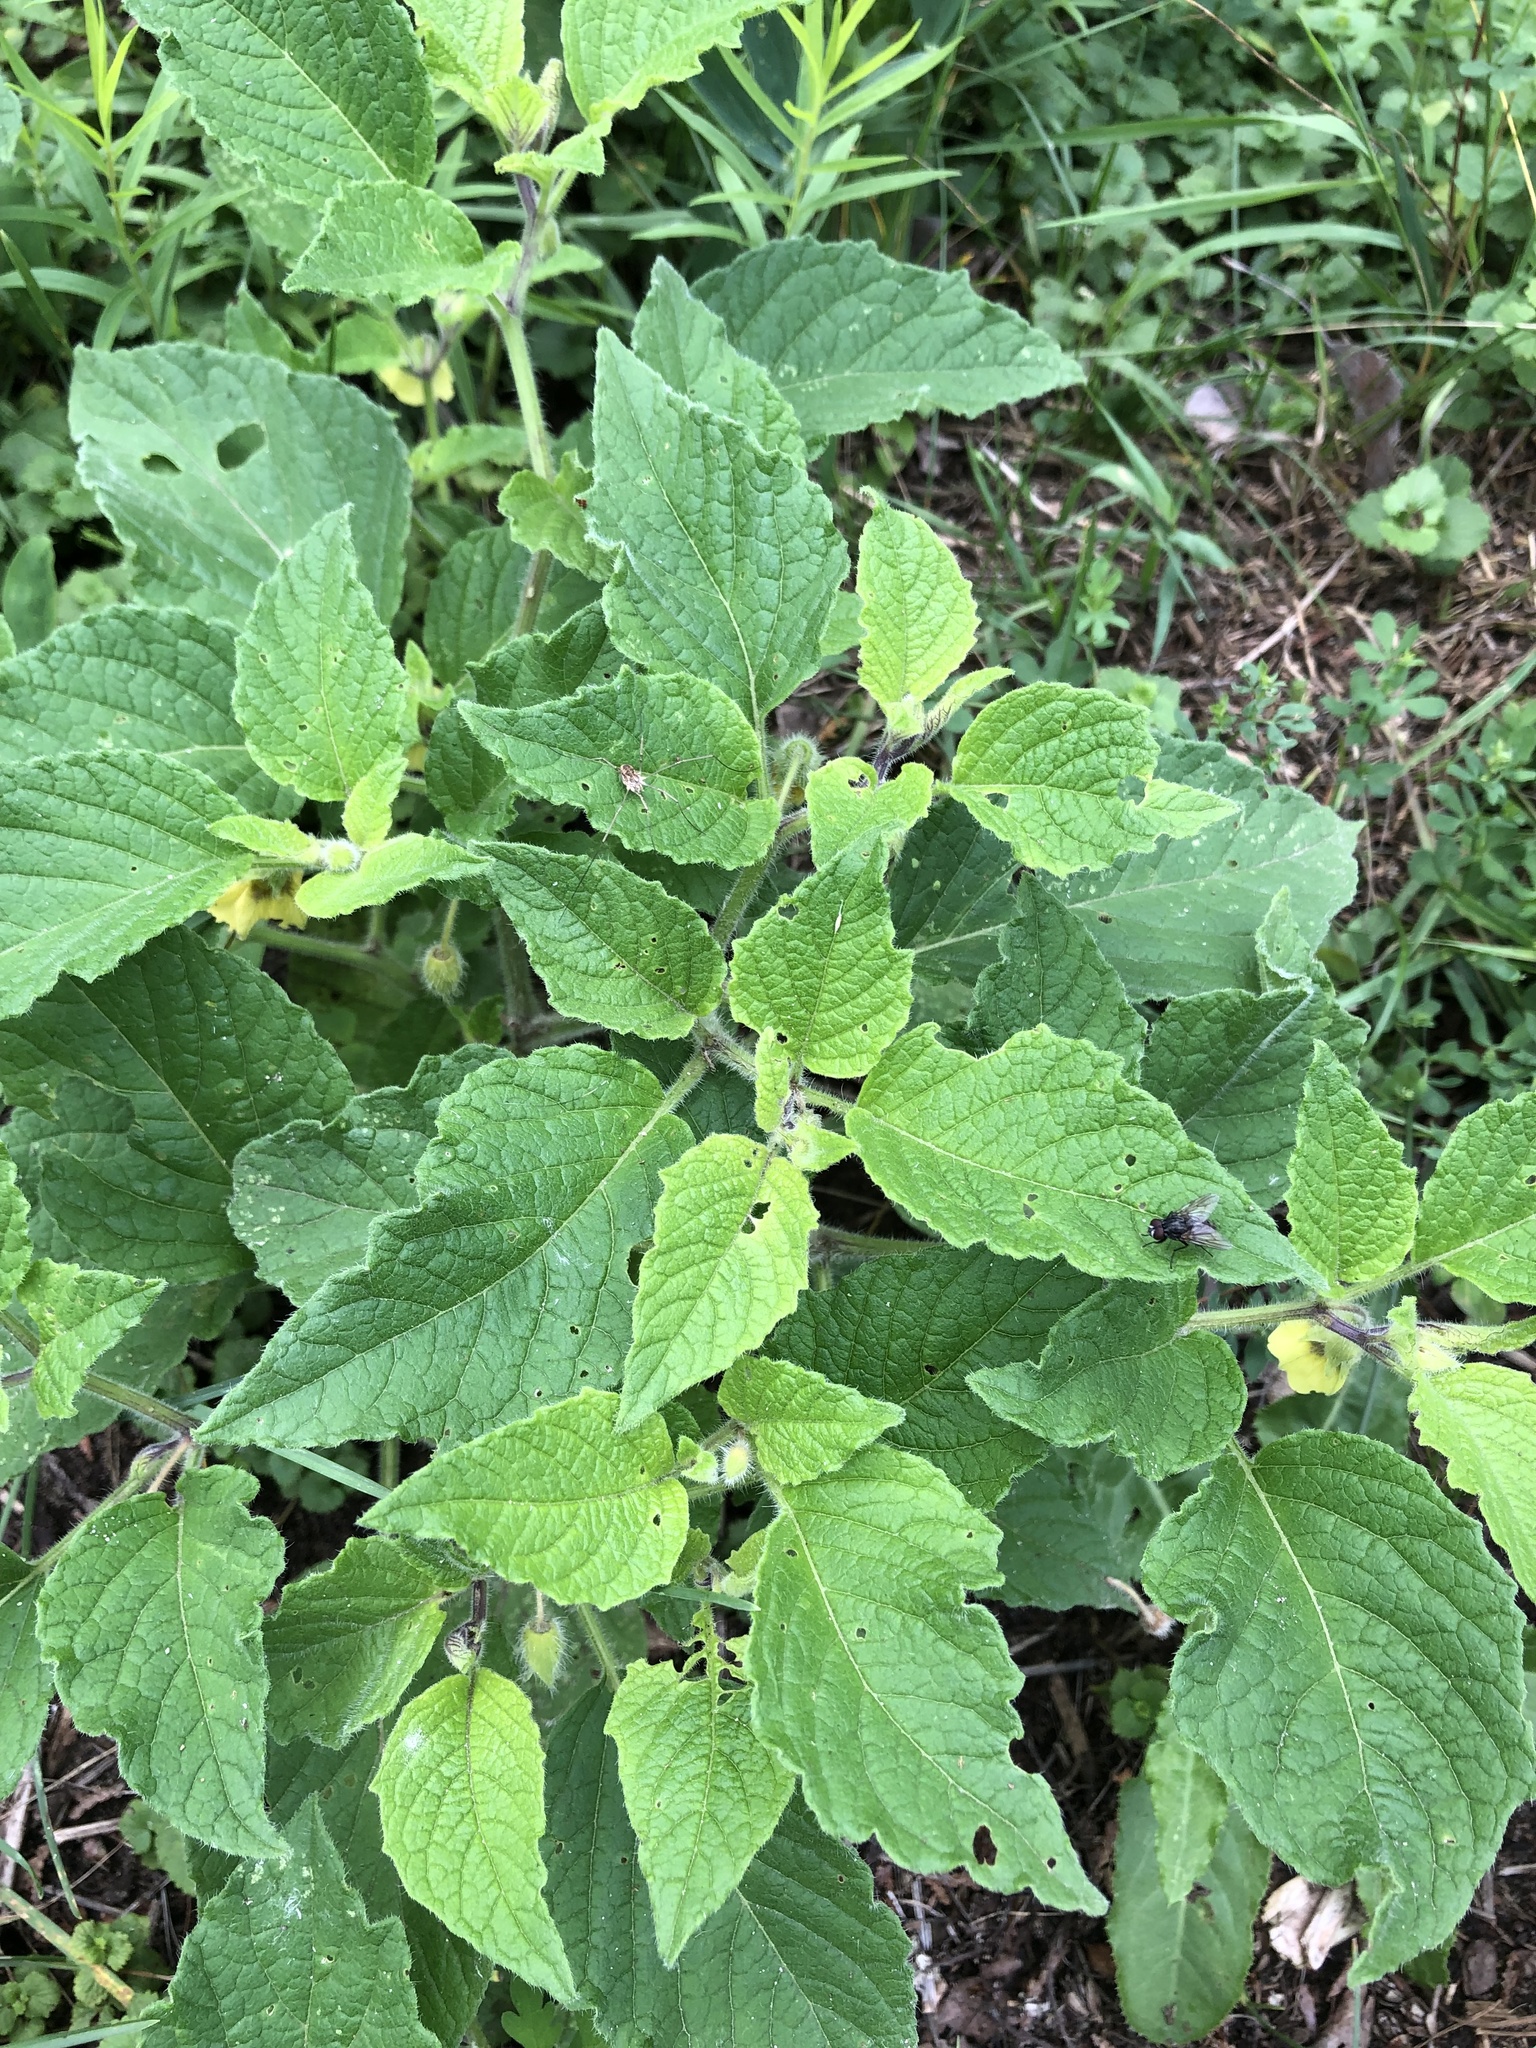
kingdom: Plantae
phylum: Tracheophyta
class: Magnoliopsida
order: Solanales
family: Solanaceae
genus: Physalis
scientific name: Physalis heterophylla
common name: Clammy ground-cherry
